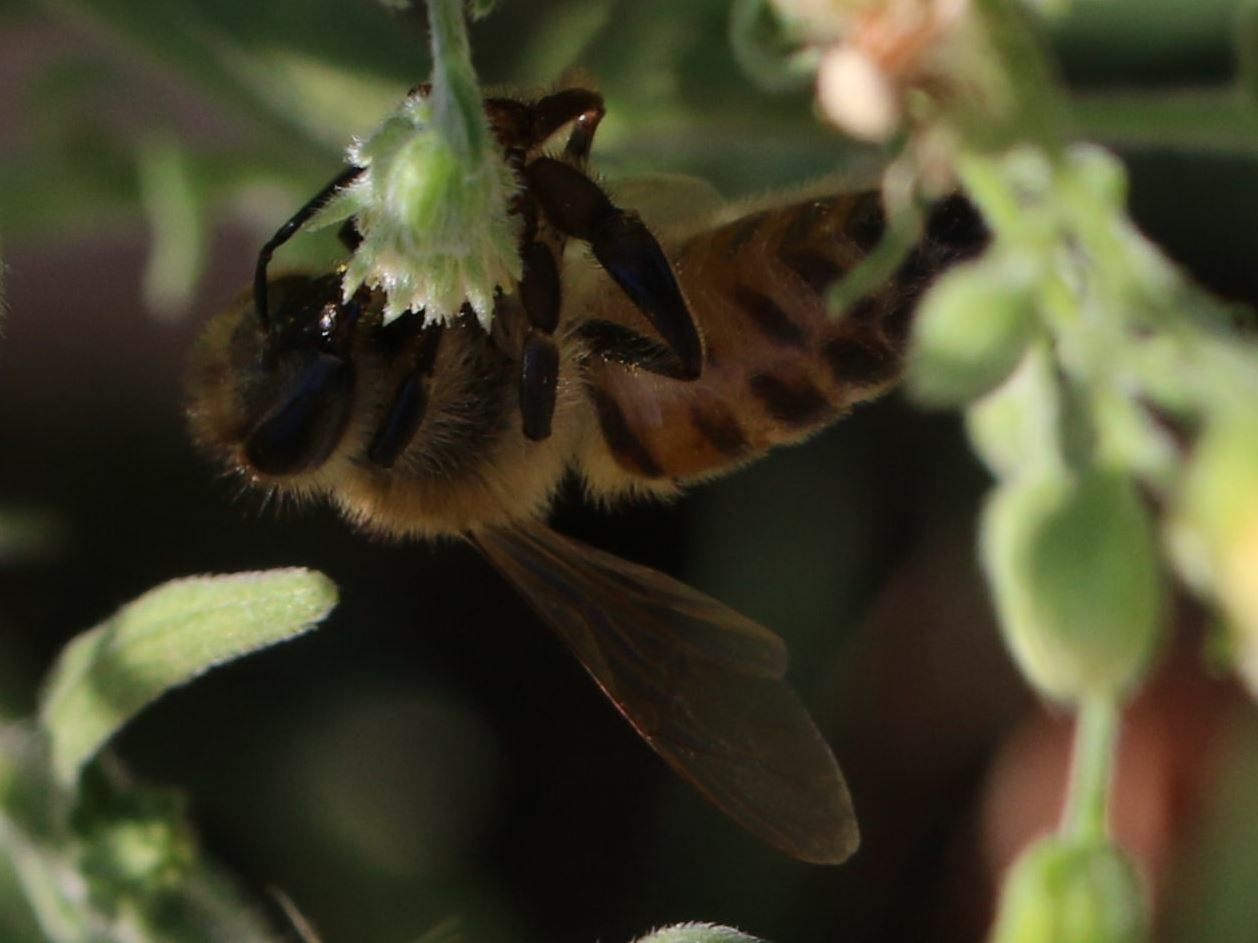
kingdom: Animalia
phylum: Arthropoda
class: Insecta
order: Hymenoptera
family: Apidae
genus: Apis
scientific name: Apis mellifera
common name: Honey bee
